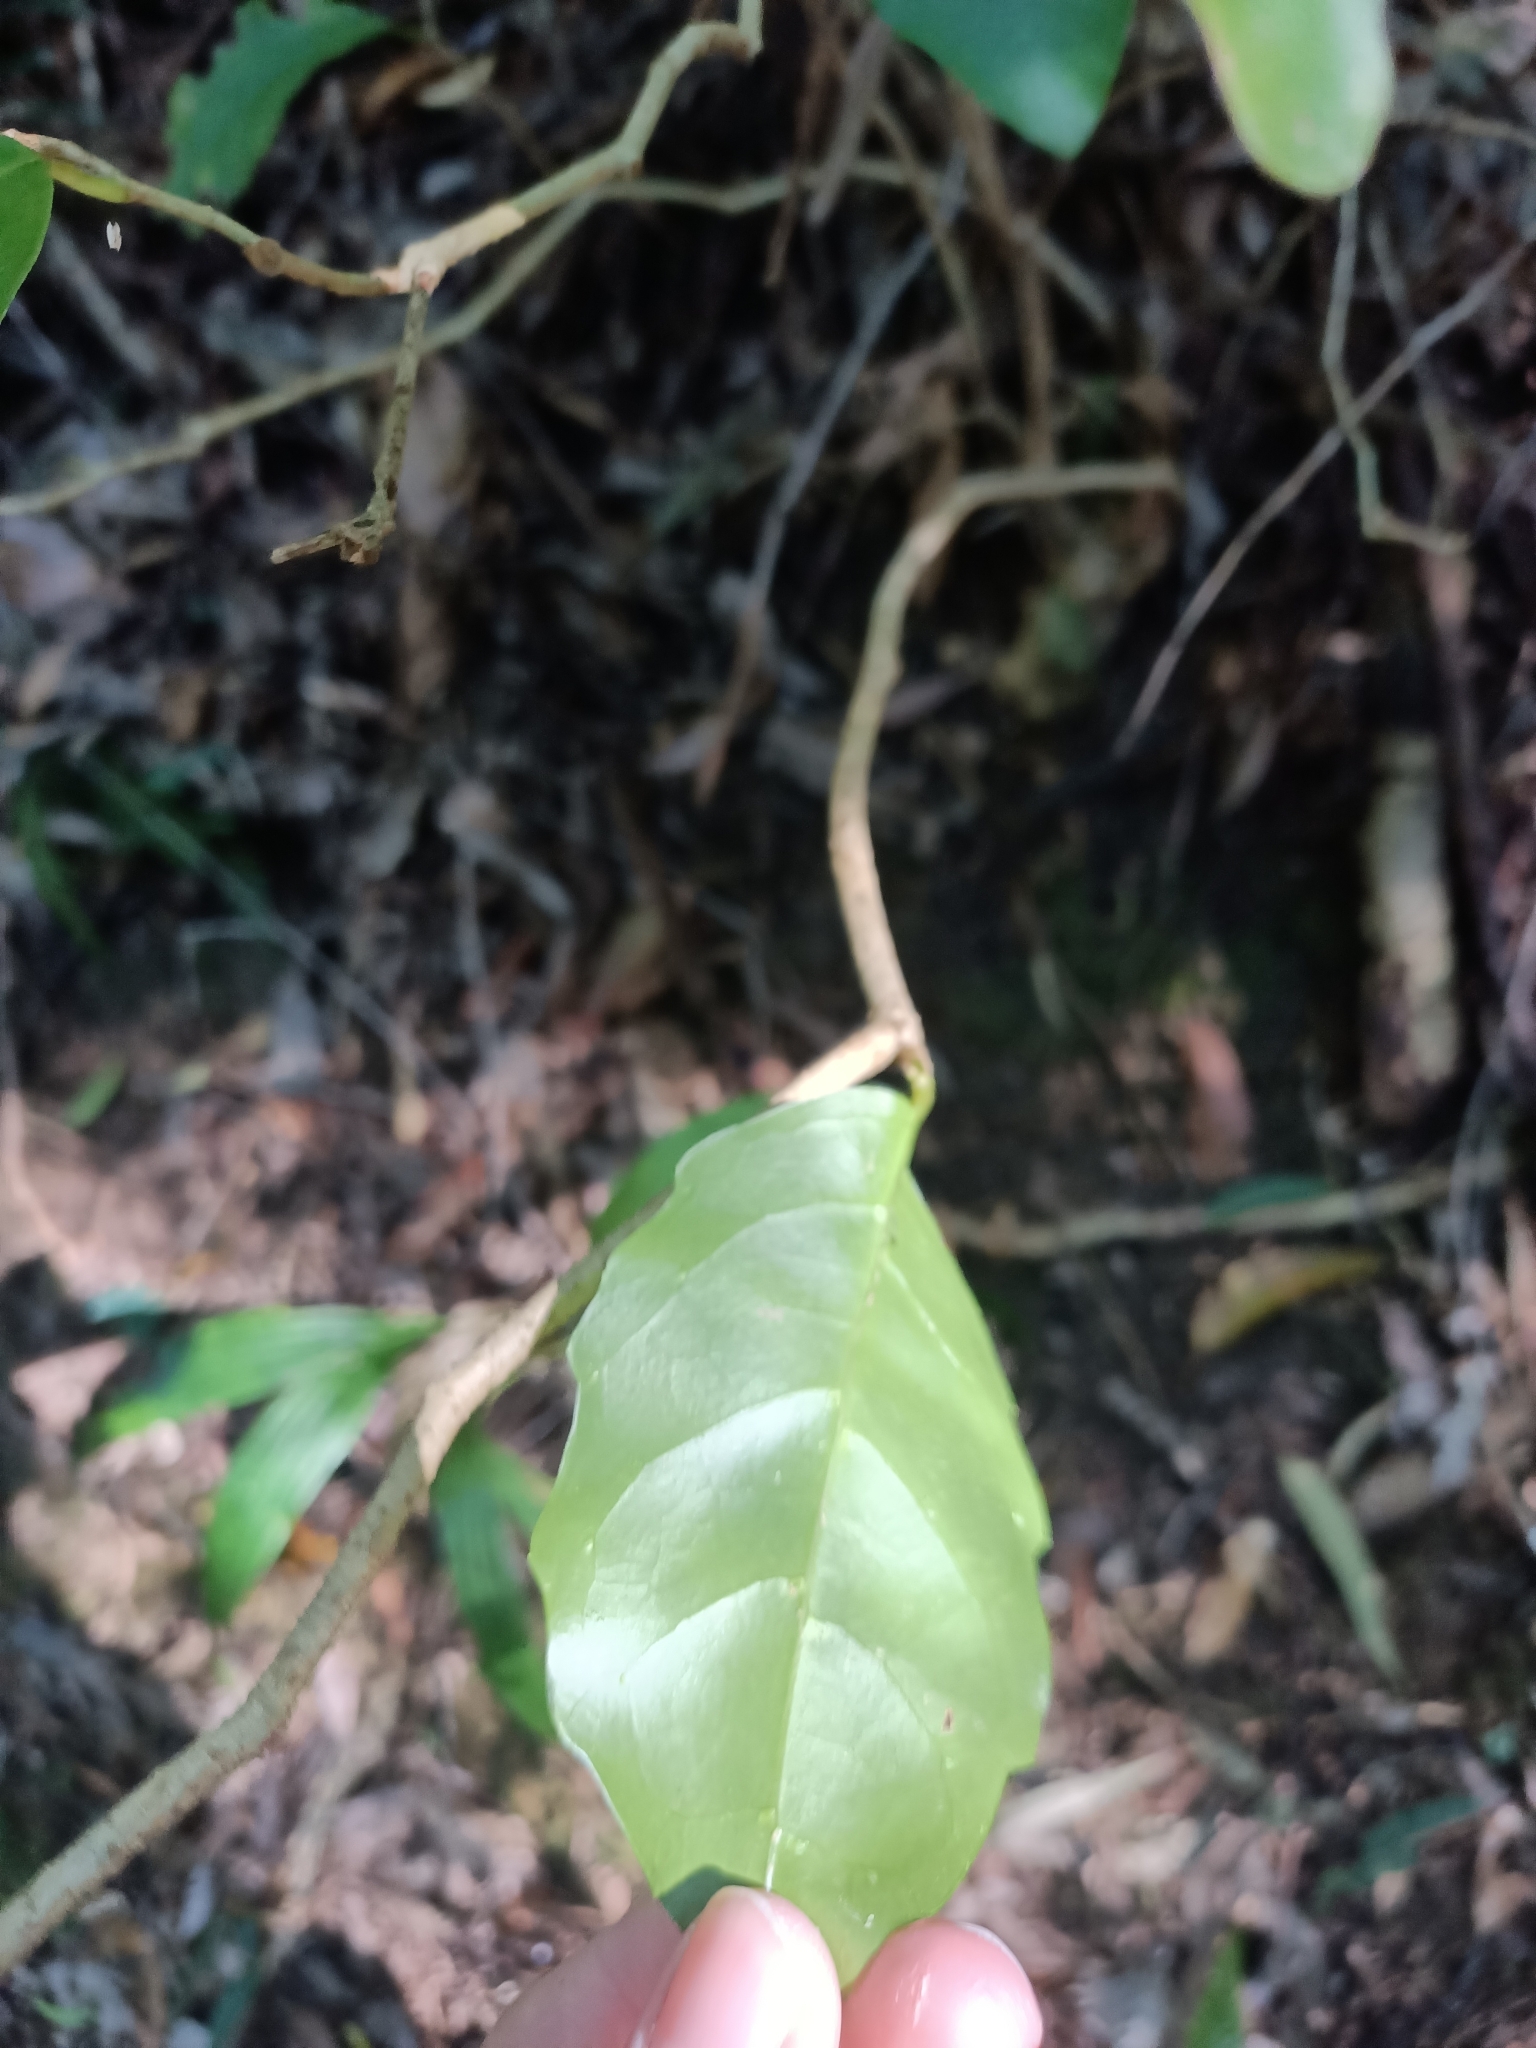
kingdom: Plantae
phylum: Tracheophyta
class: Magnoliopsida
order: Apiales
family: Pennantiaceae
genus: Pennantia
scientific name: Pennantia cunninghamii
